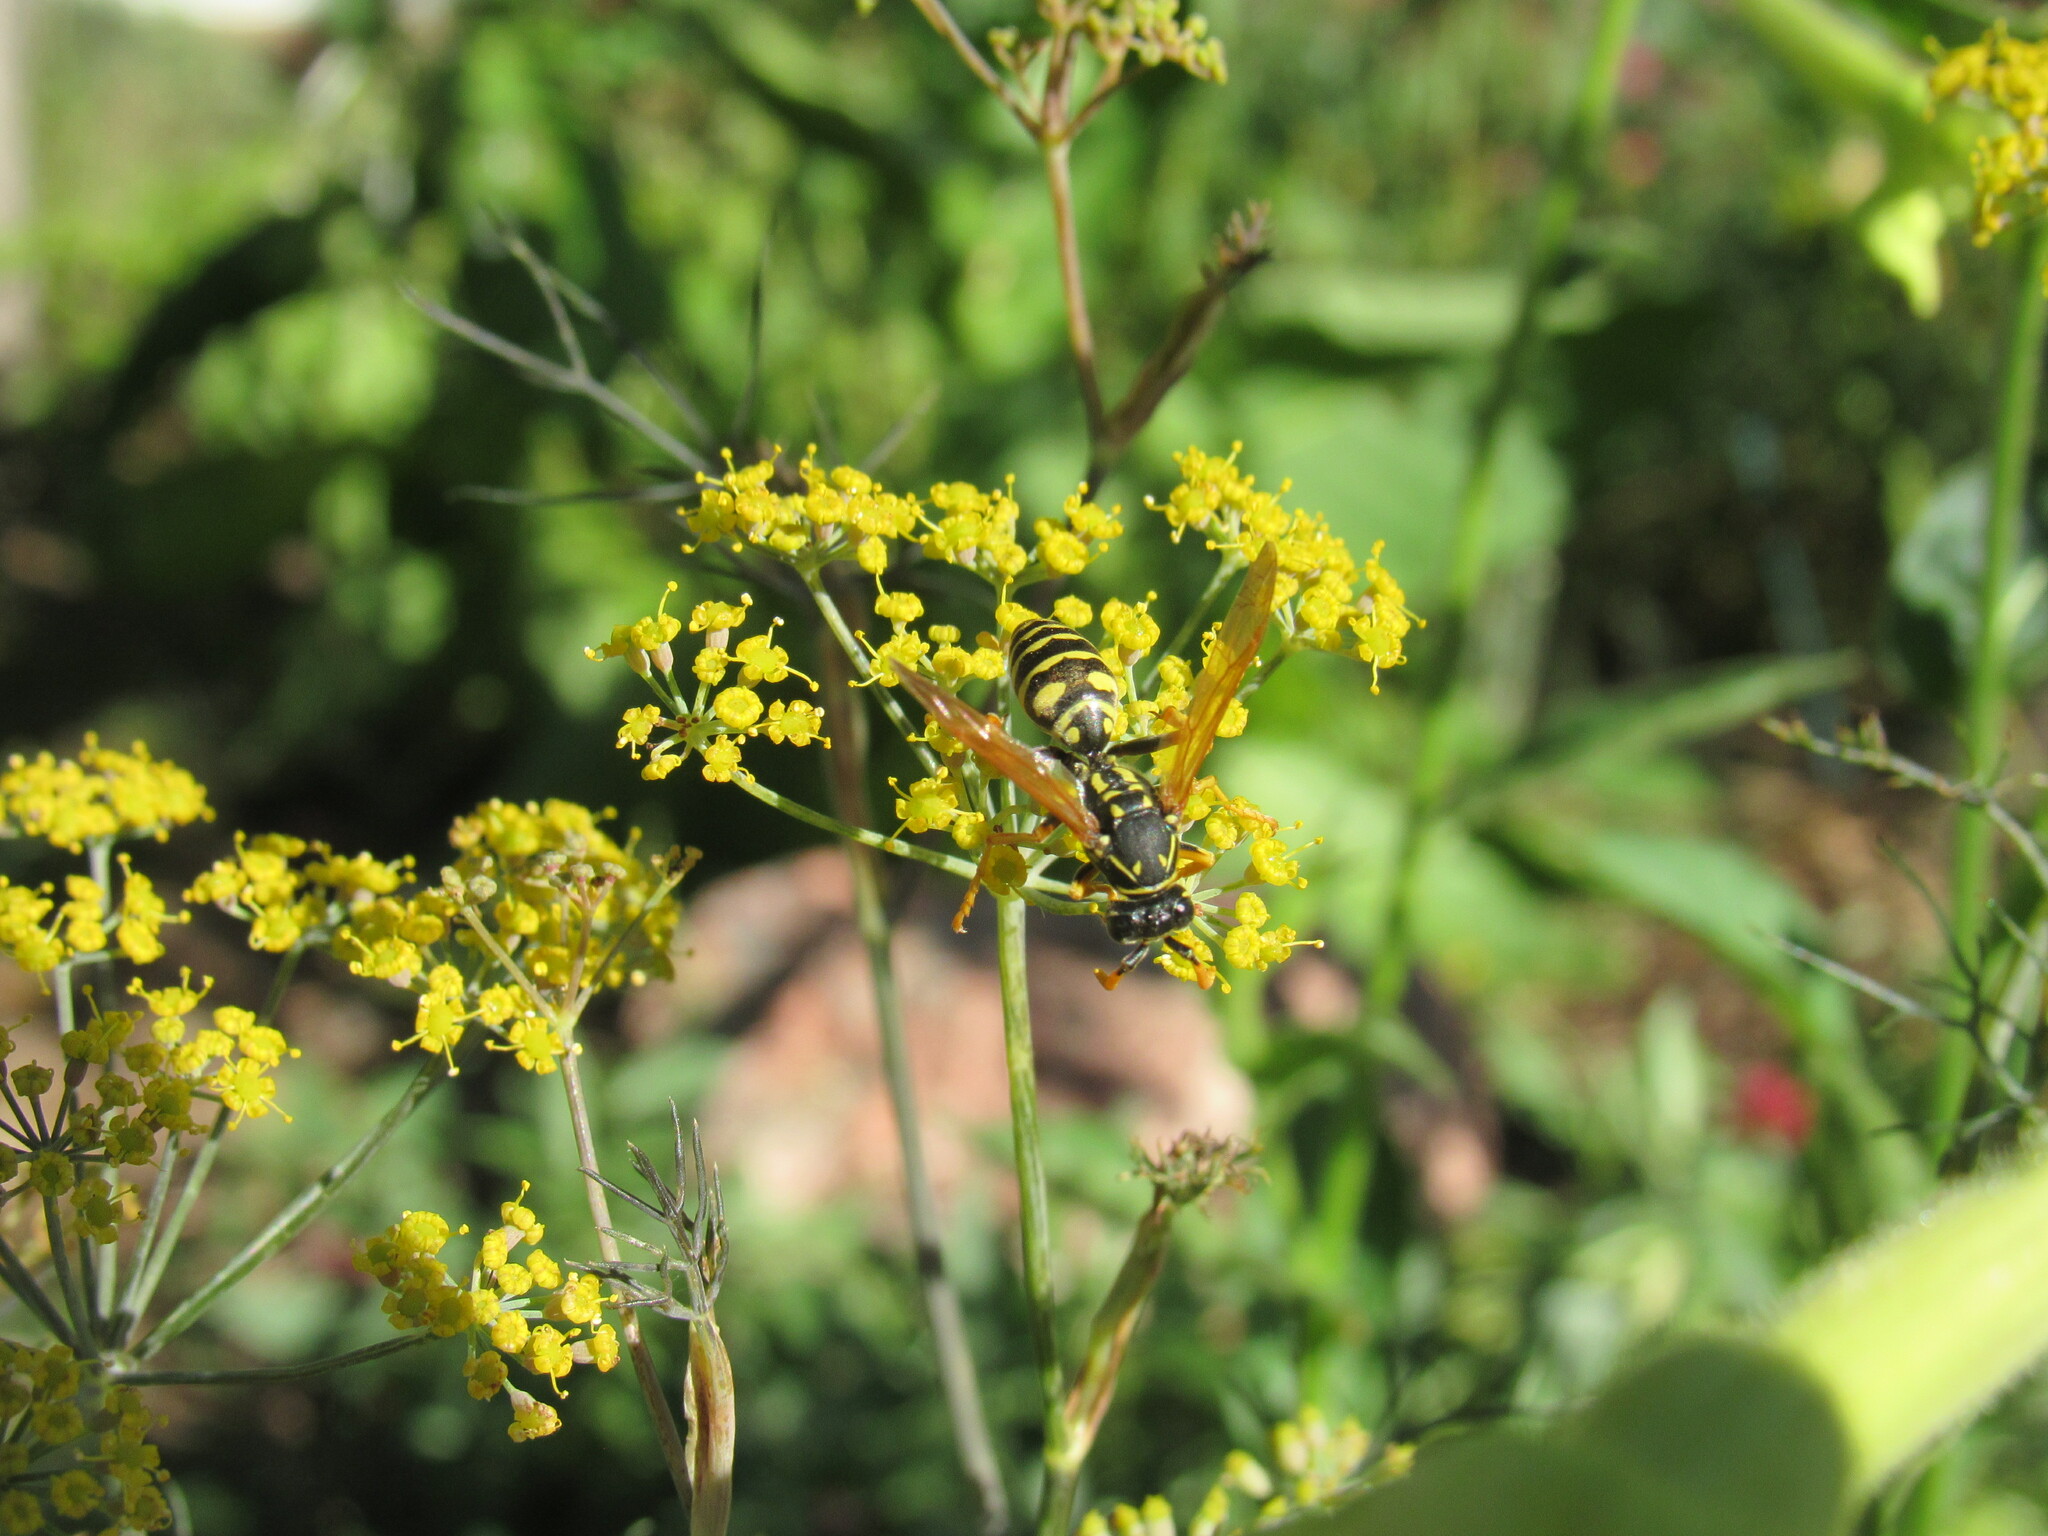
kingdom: Animalia
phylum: Arthropoda
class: Insecta
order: Hymenoptera
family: Eumenidae
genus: Polistes
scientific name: Polistes dominula
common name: Paper wasp
